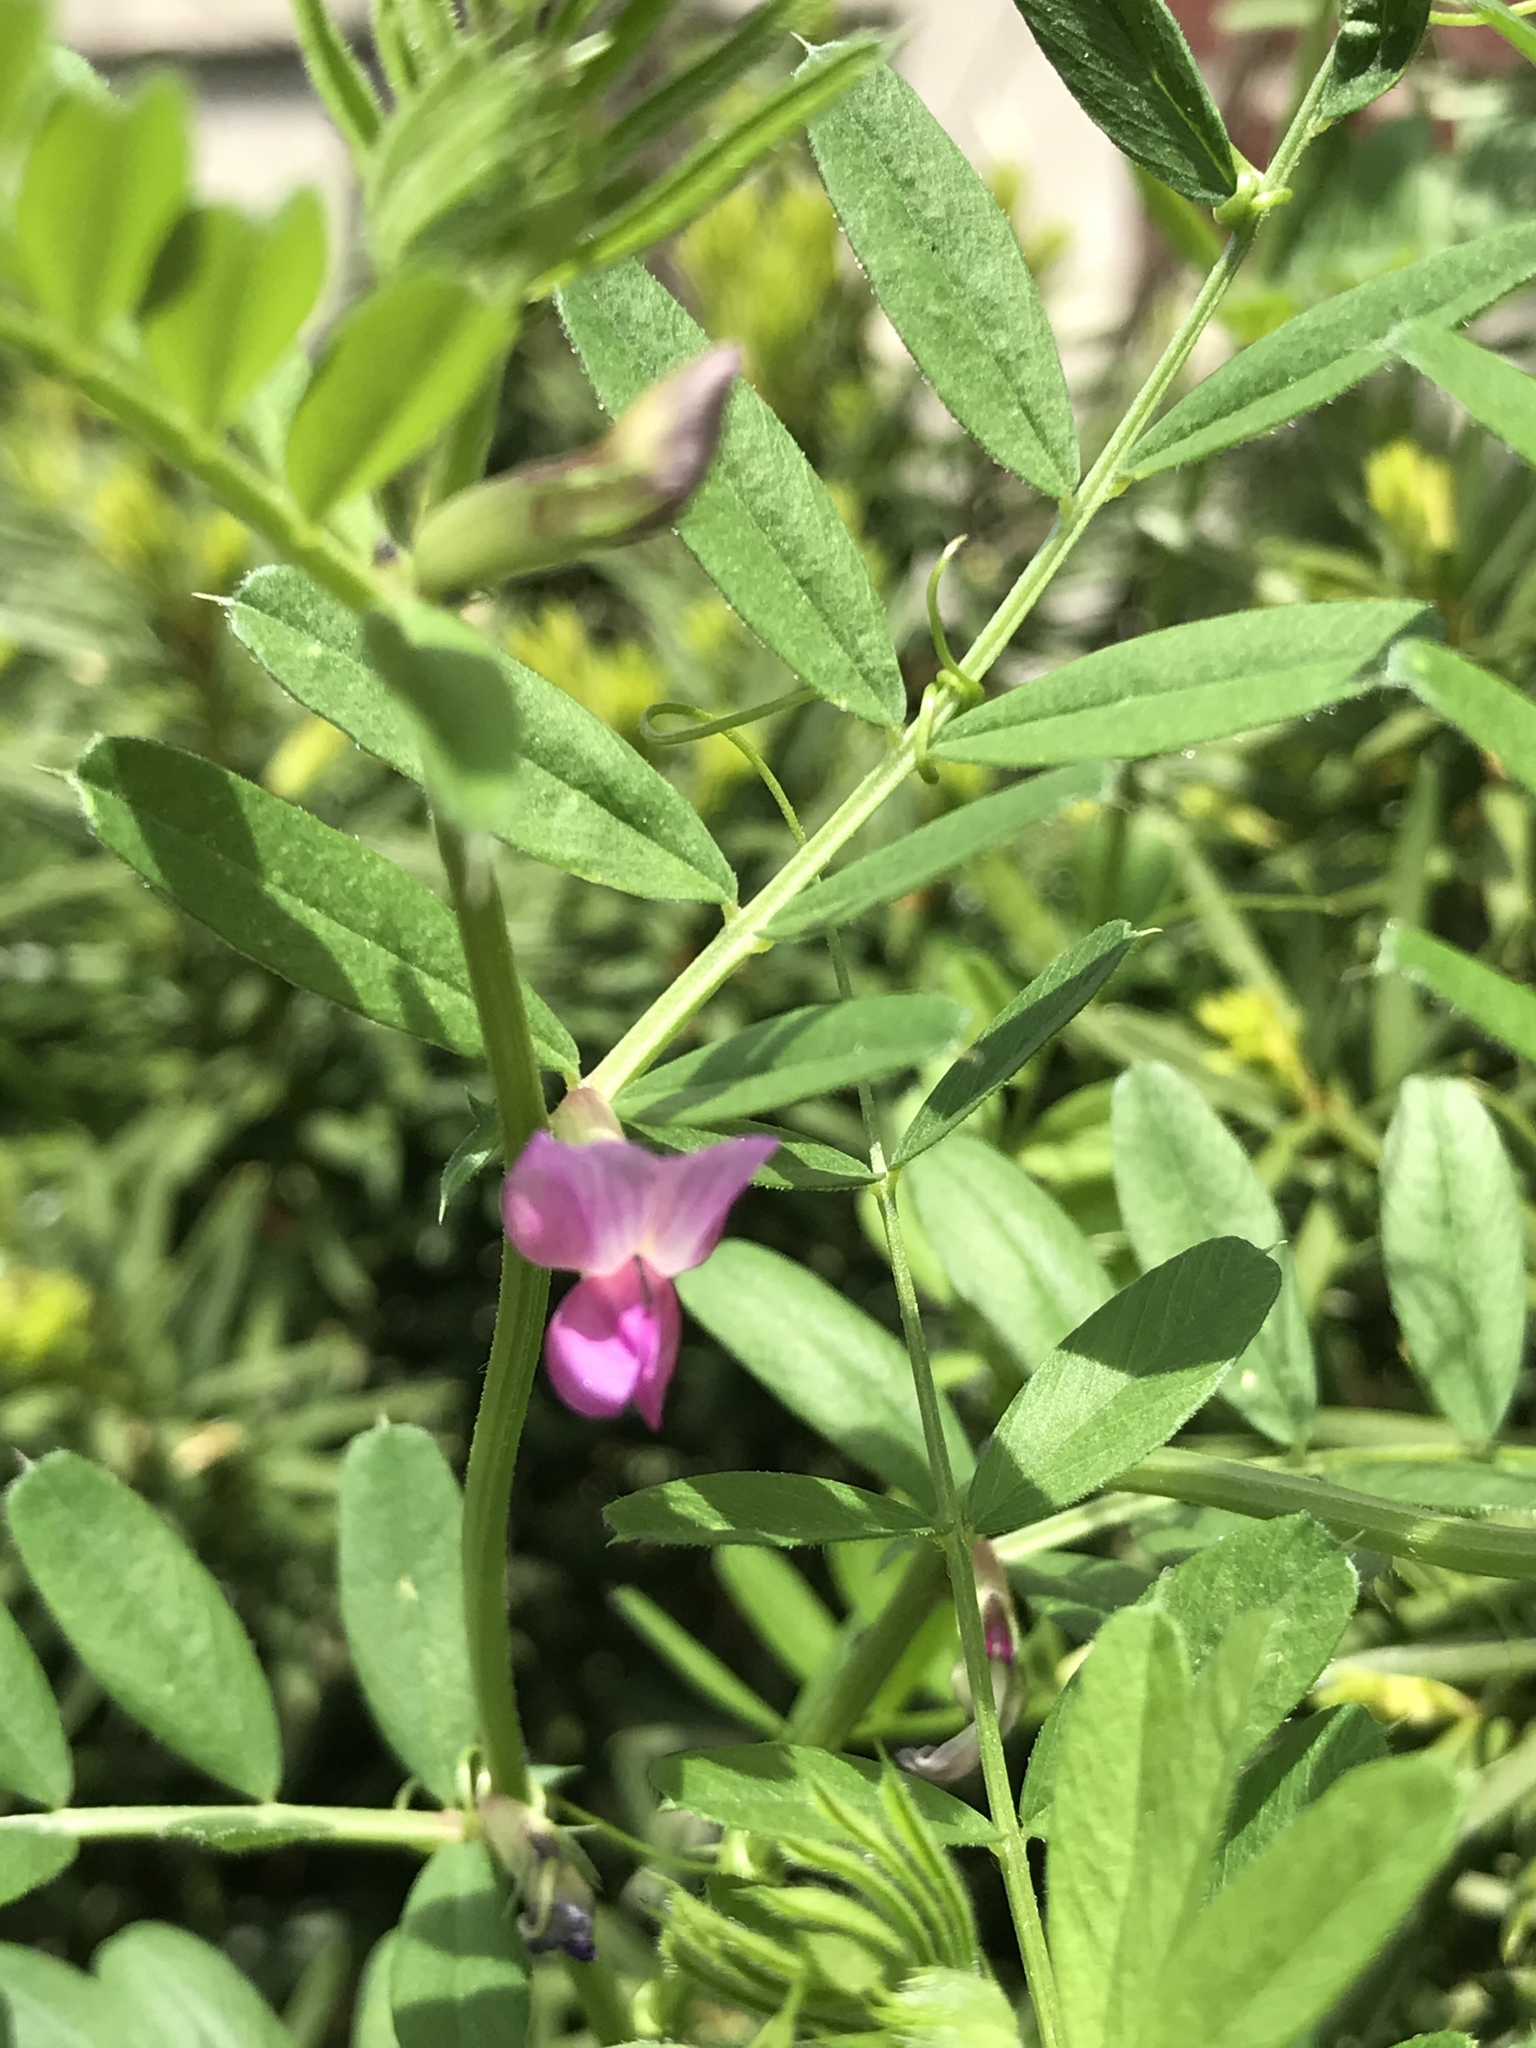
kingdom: Plantae
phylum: Tracheophyta
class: Magnoliopsida
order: Fabales
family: Fabaceae
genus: Vicia
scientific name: Vicia sativa
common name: Garden vetch
